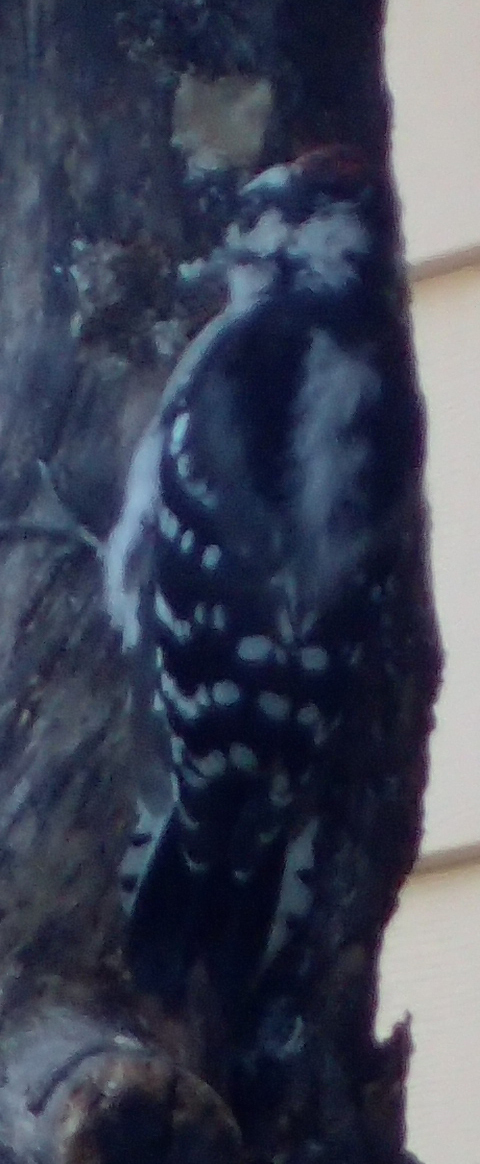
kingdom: Animalia
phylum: Chordata
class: Aves
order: Piciformes
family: Picidae
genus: Dryobates
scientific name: Dryobates pubescens
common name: Downy woodpecker
